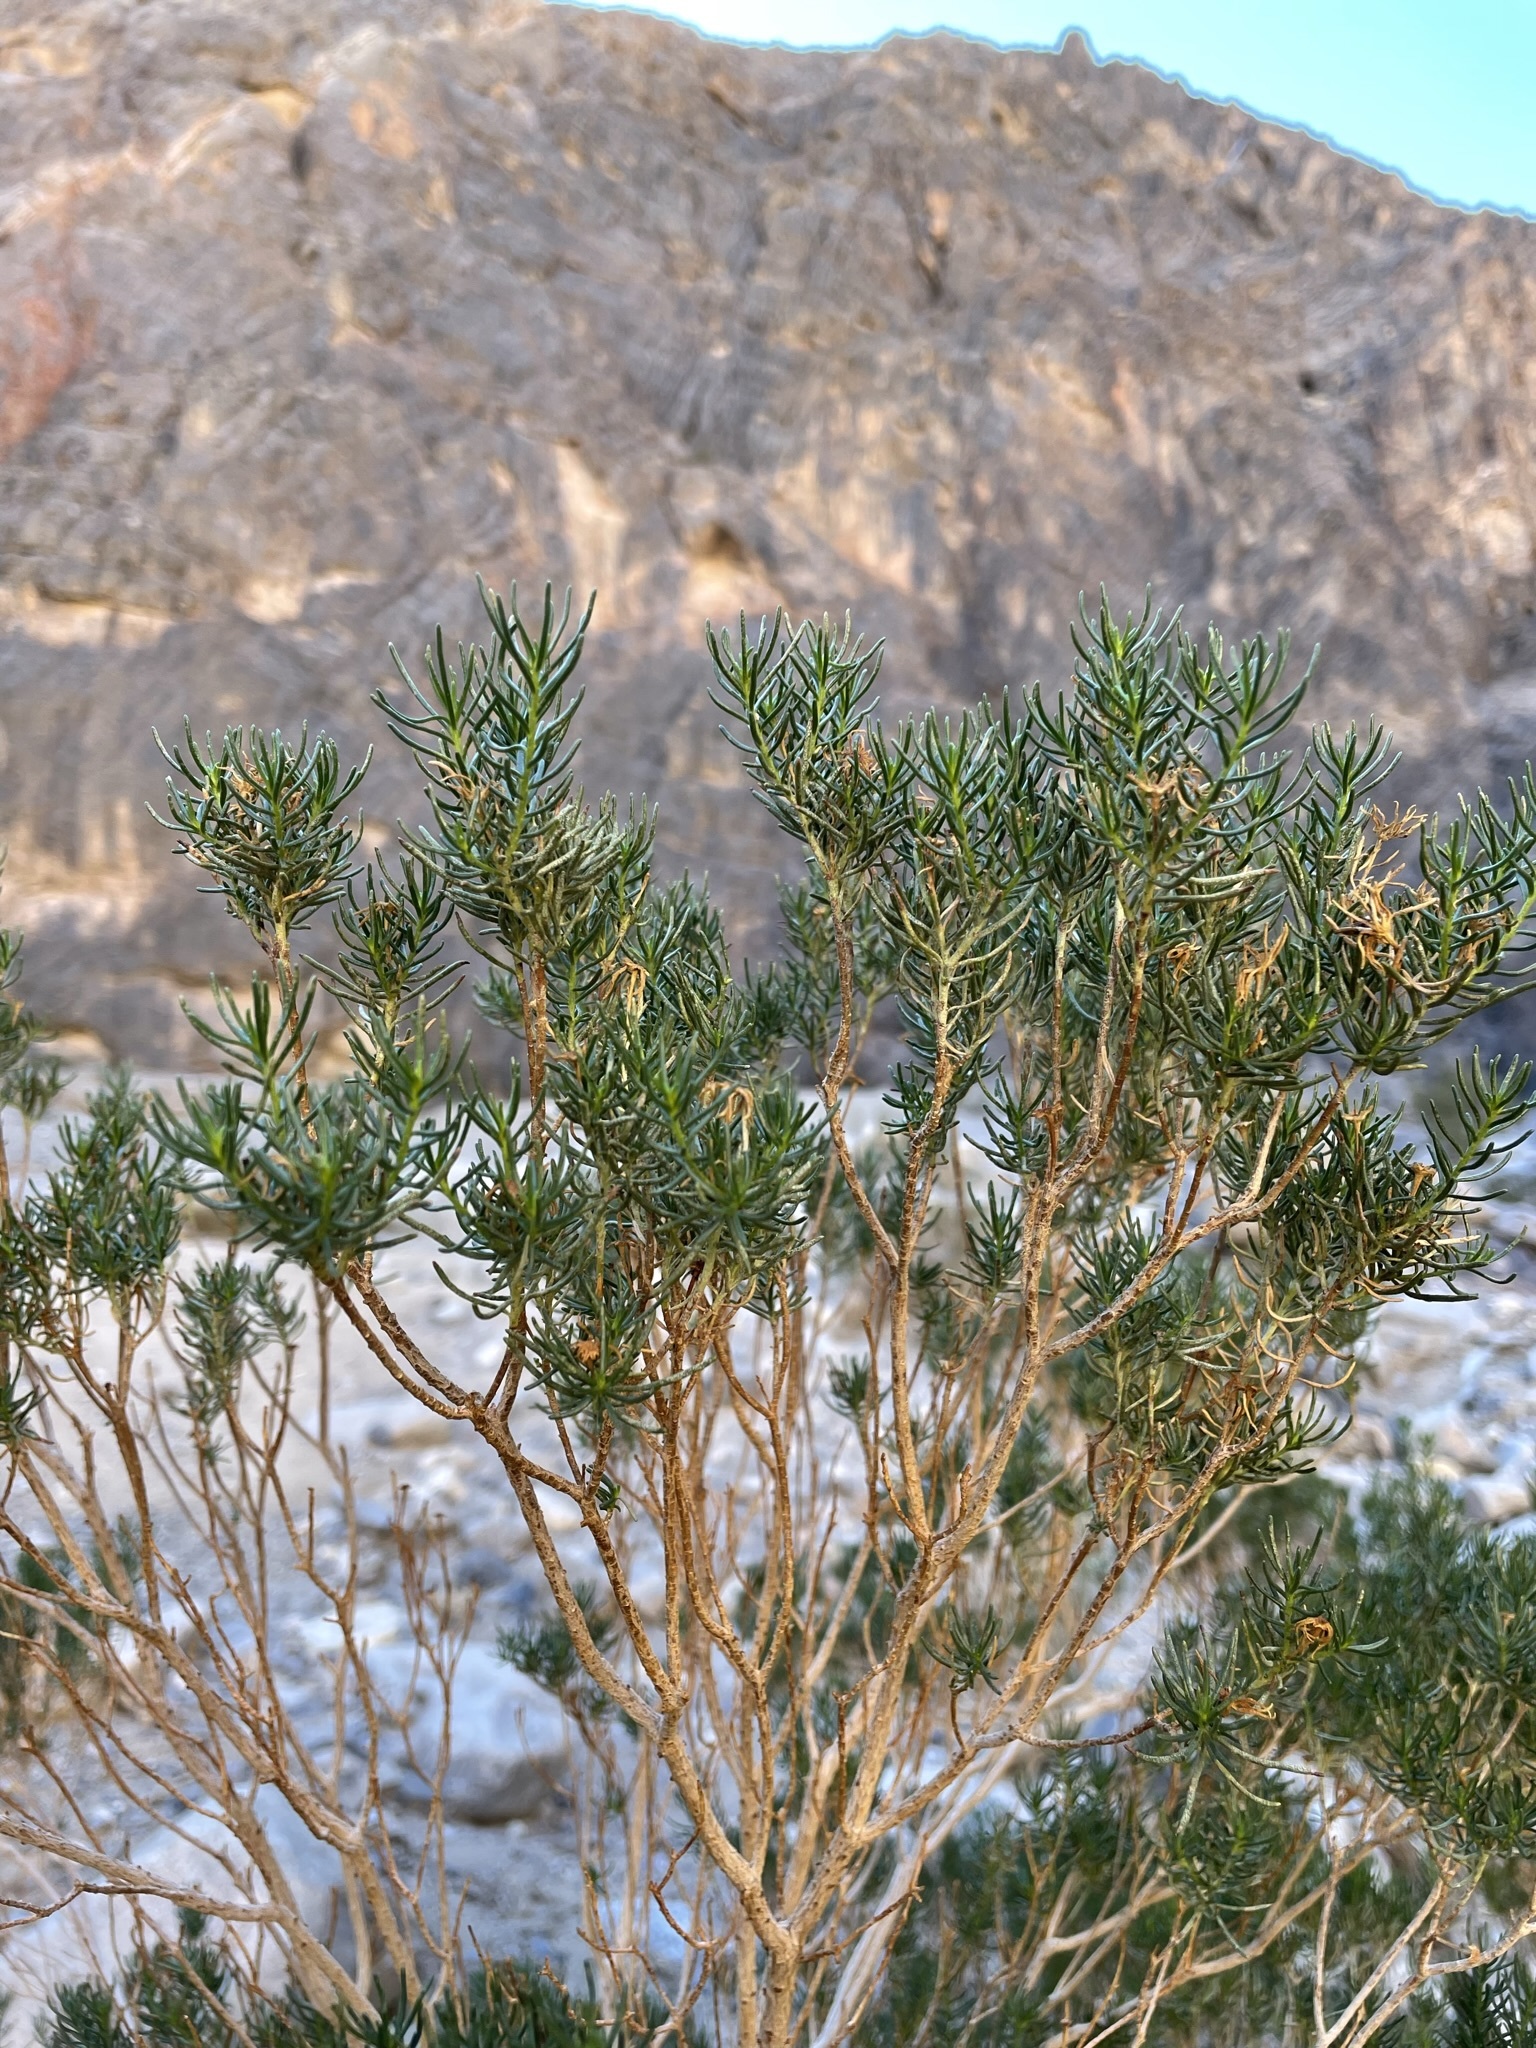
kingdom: Plantae
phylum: Tracheophyta
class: Magnoliopsida
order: Asterales
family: Asteraceae
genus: Peucephyllum
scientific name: Peucephyllum schottii
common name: Pygmy-cedar
